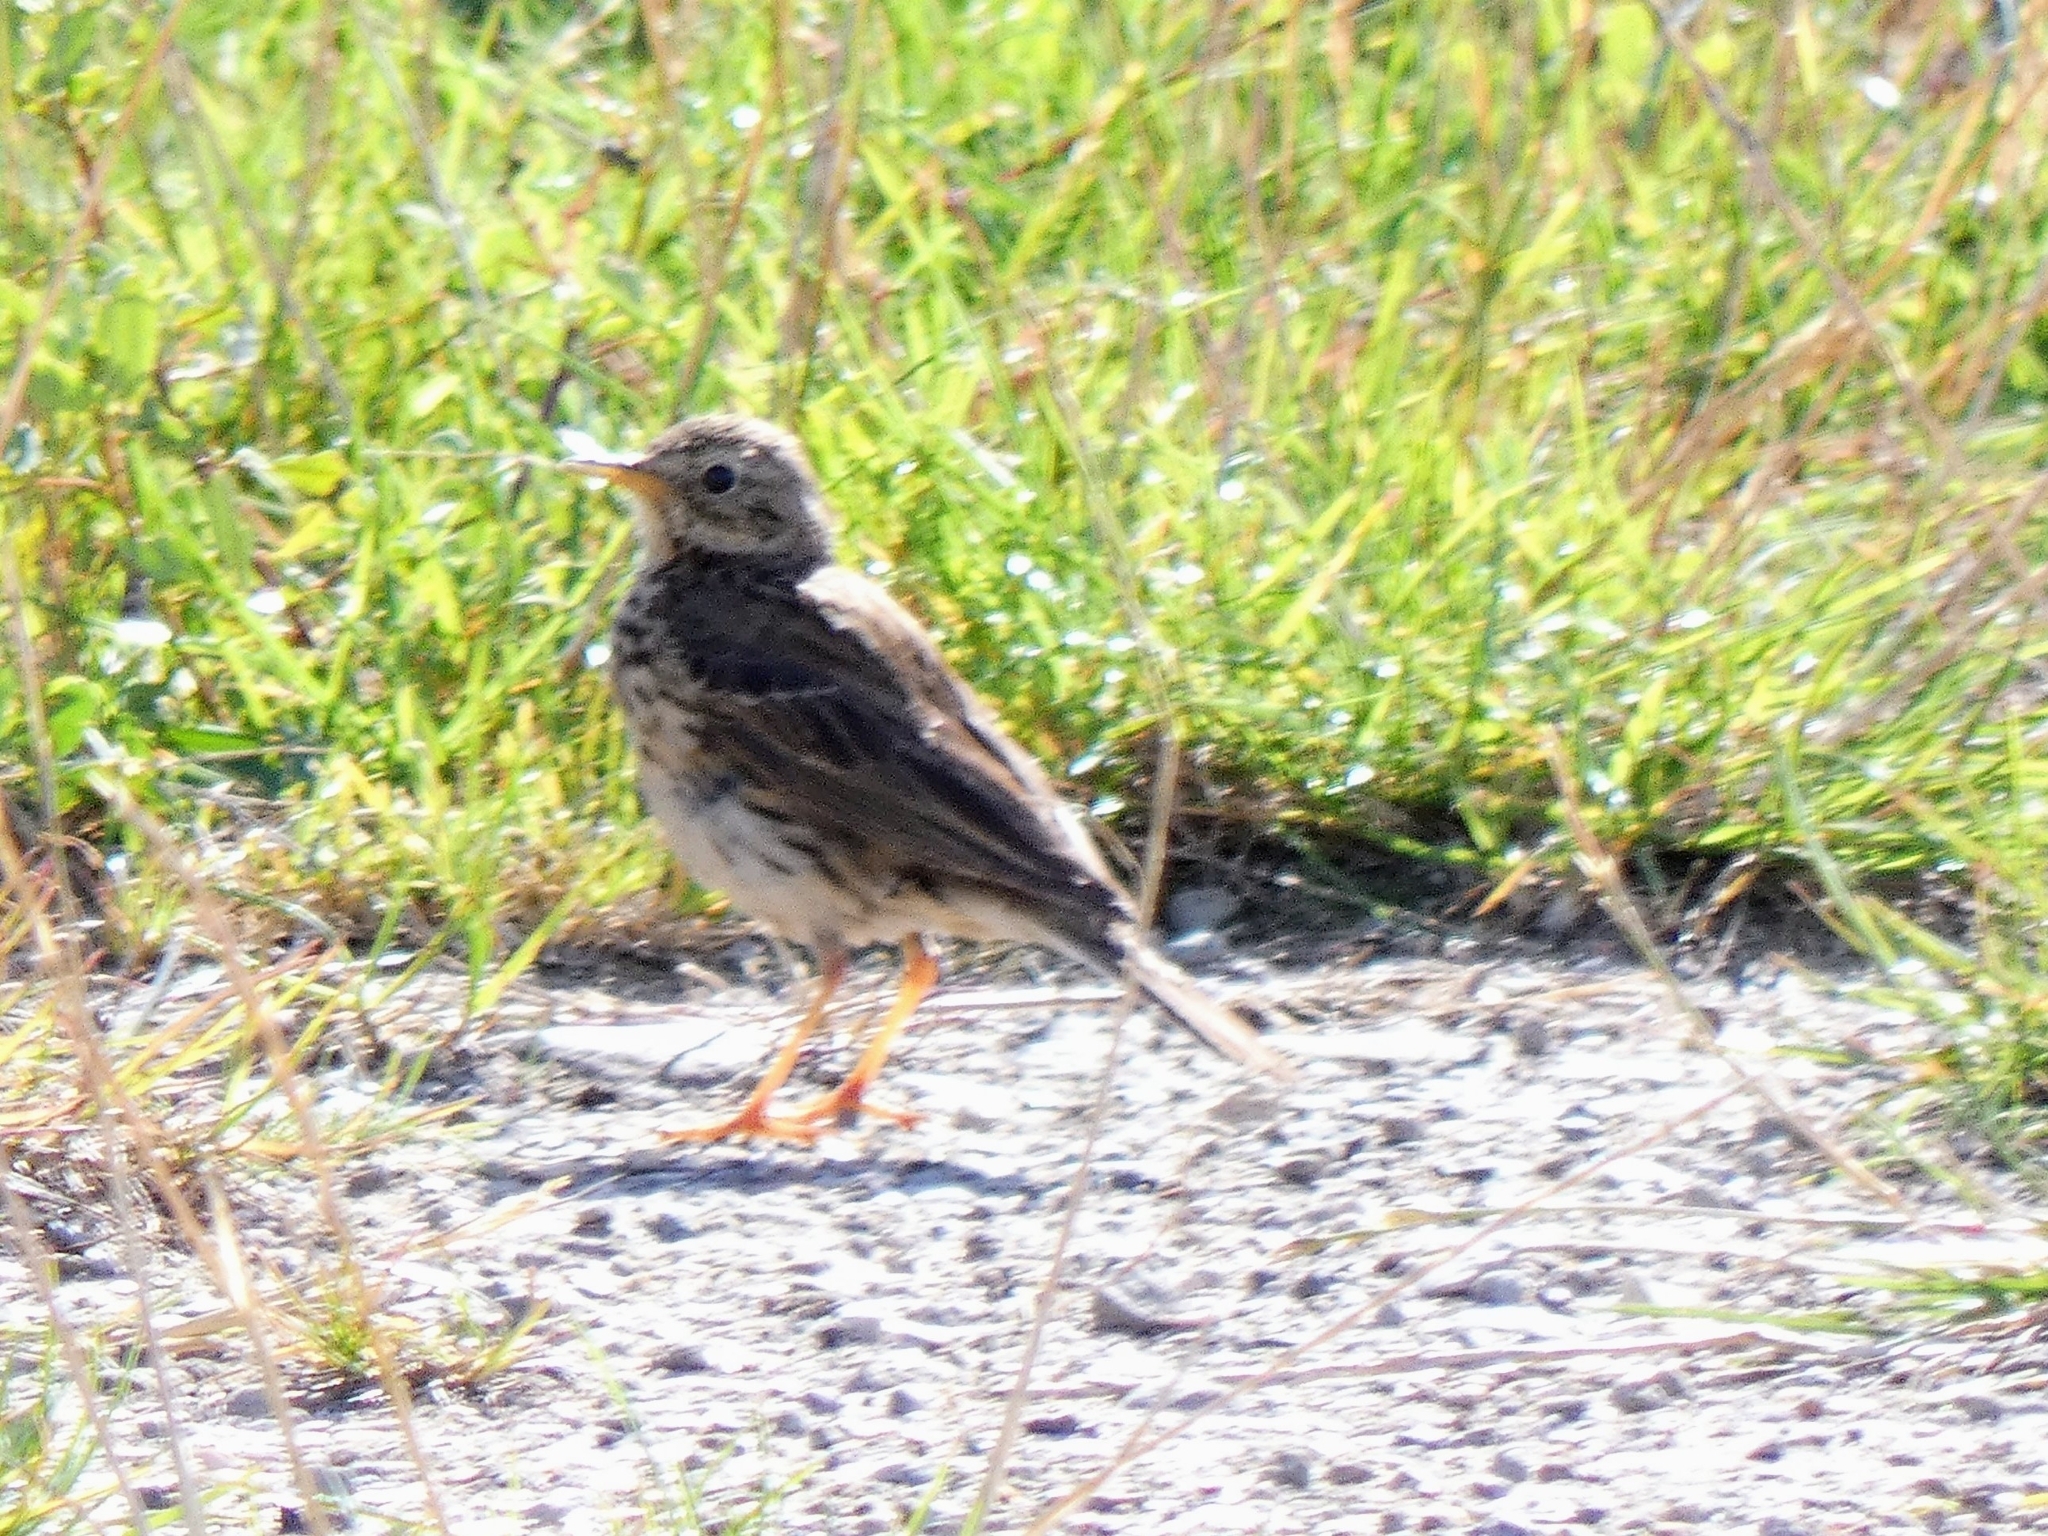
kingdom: Animalia
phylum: Chordata
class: Aves
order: Passeriformes
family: Motacillidae
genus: Anthus
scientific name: Anthus pratensis
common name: Meadow pipit
